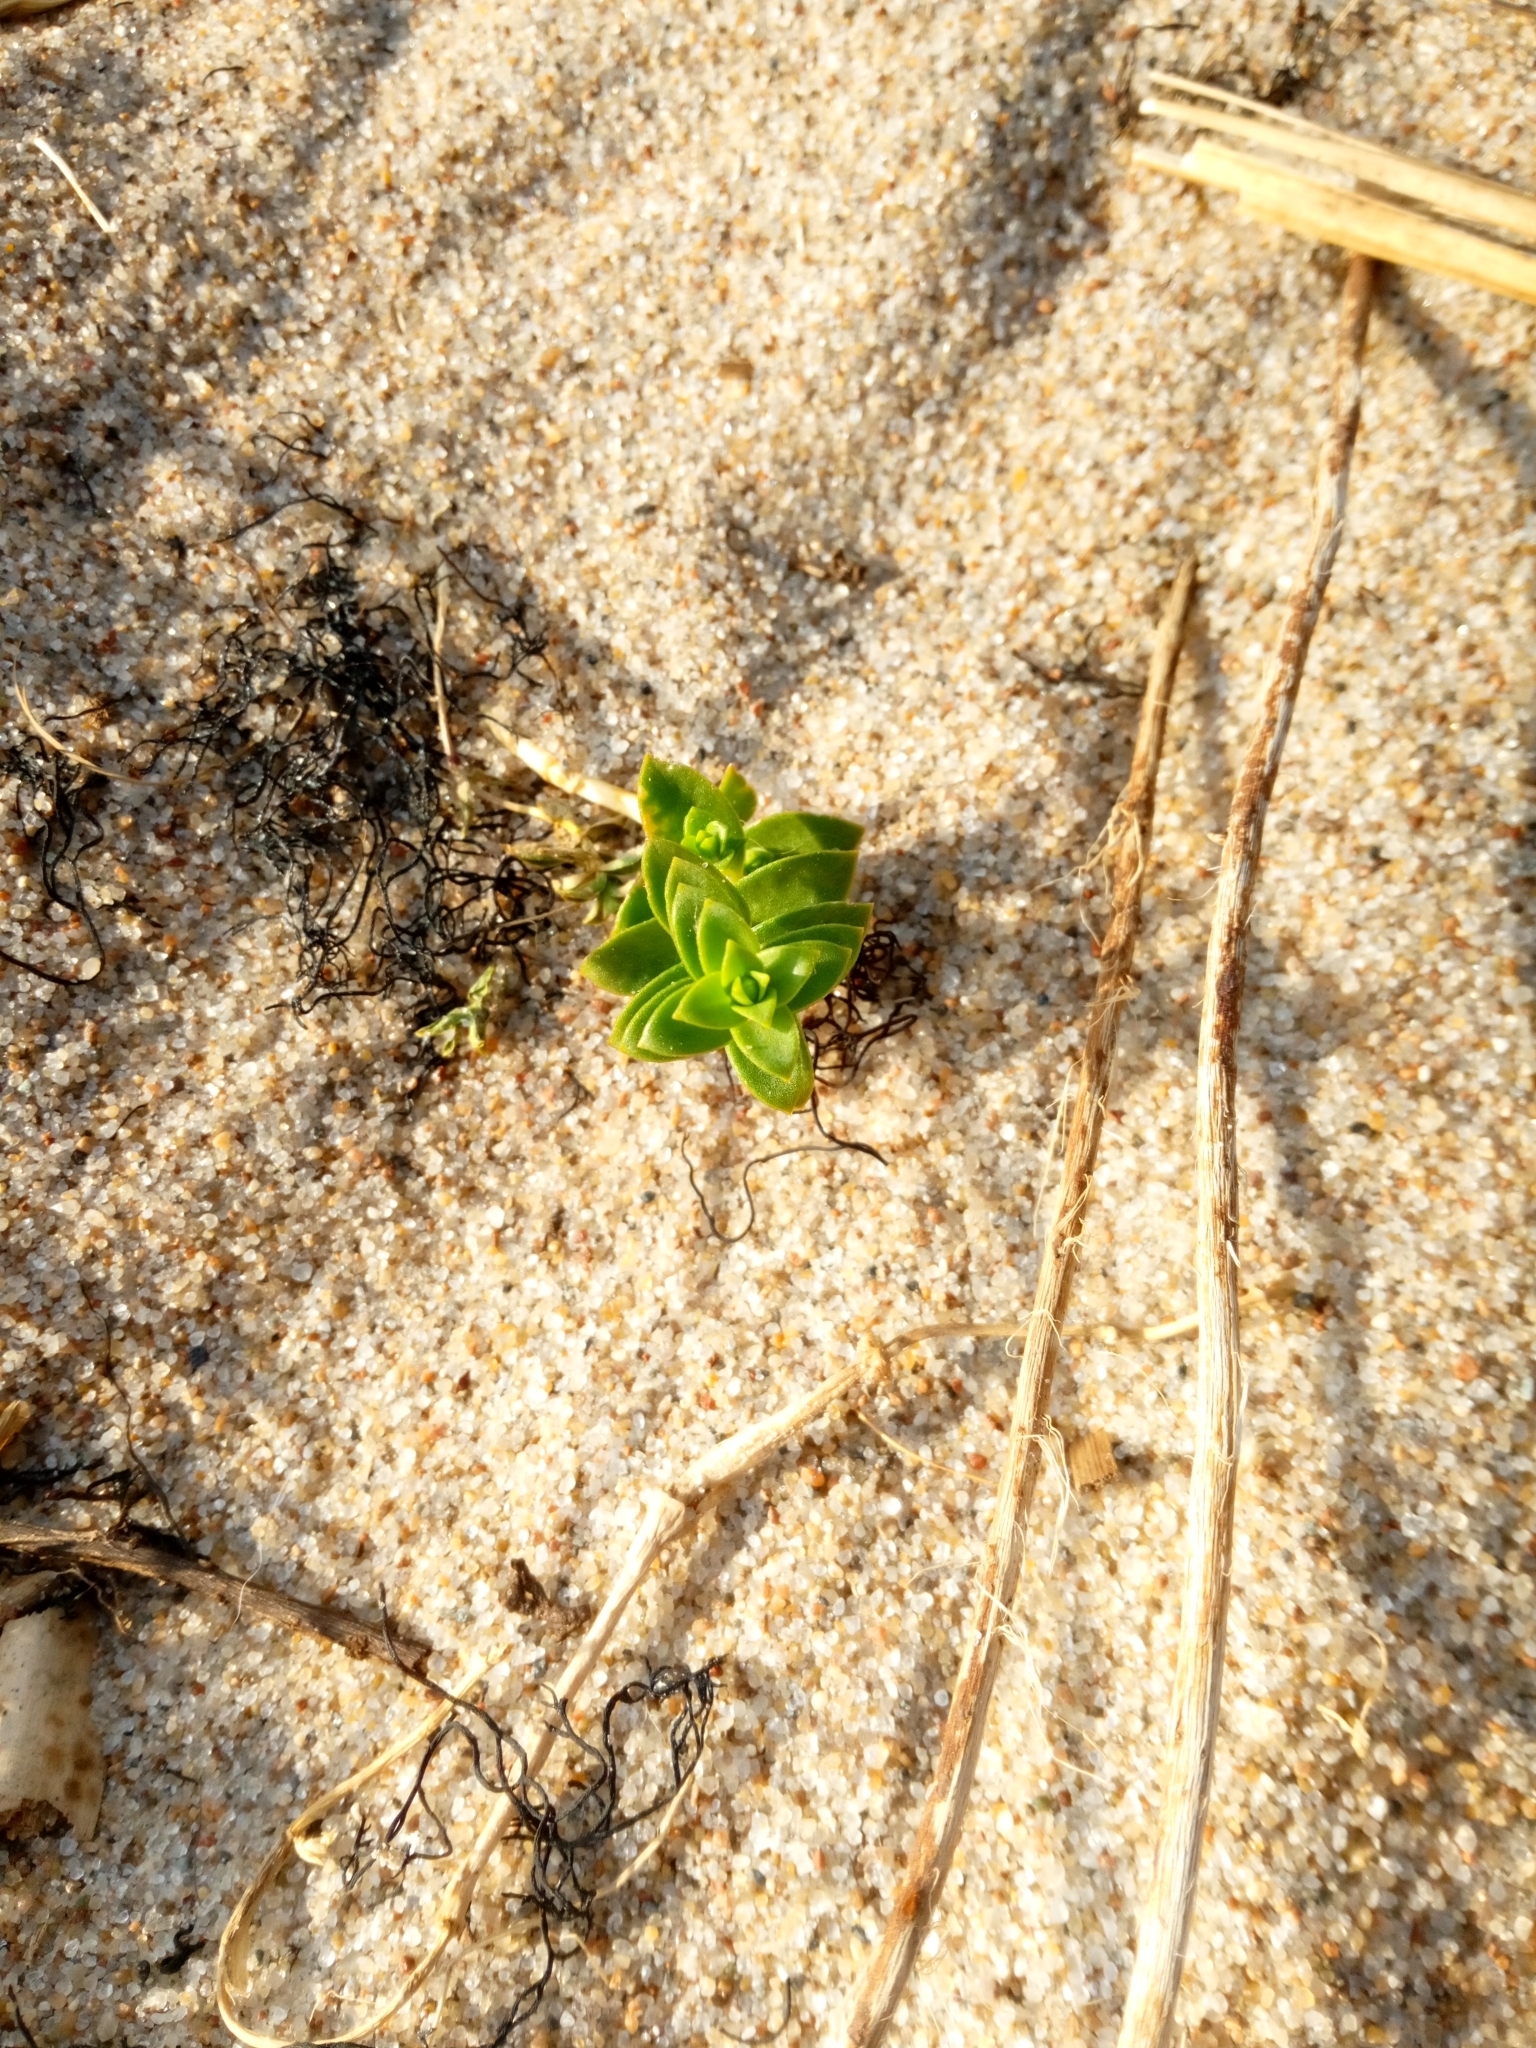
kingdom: Plantae
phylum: Tracheophyta
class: Magnoliopsida
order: Caryophyllales
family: Caryophyllaceae
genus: Honckenya
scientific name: Honckenya peploides
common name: Sea sandwort
